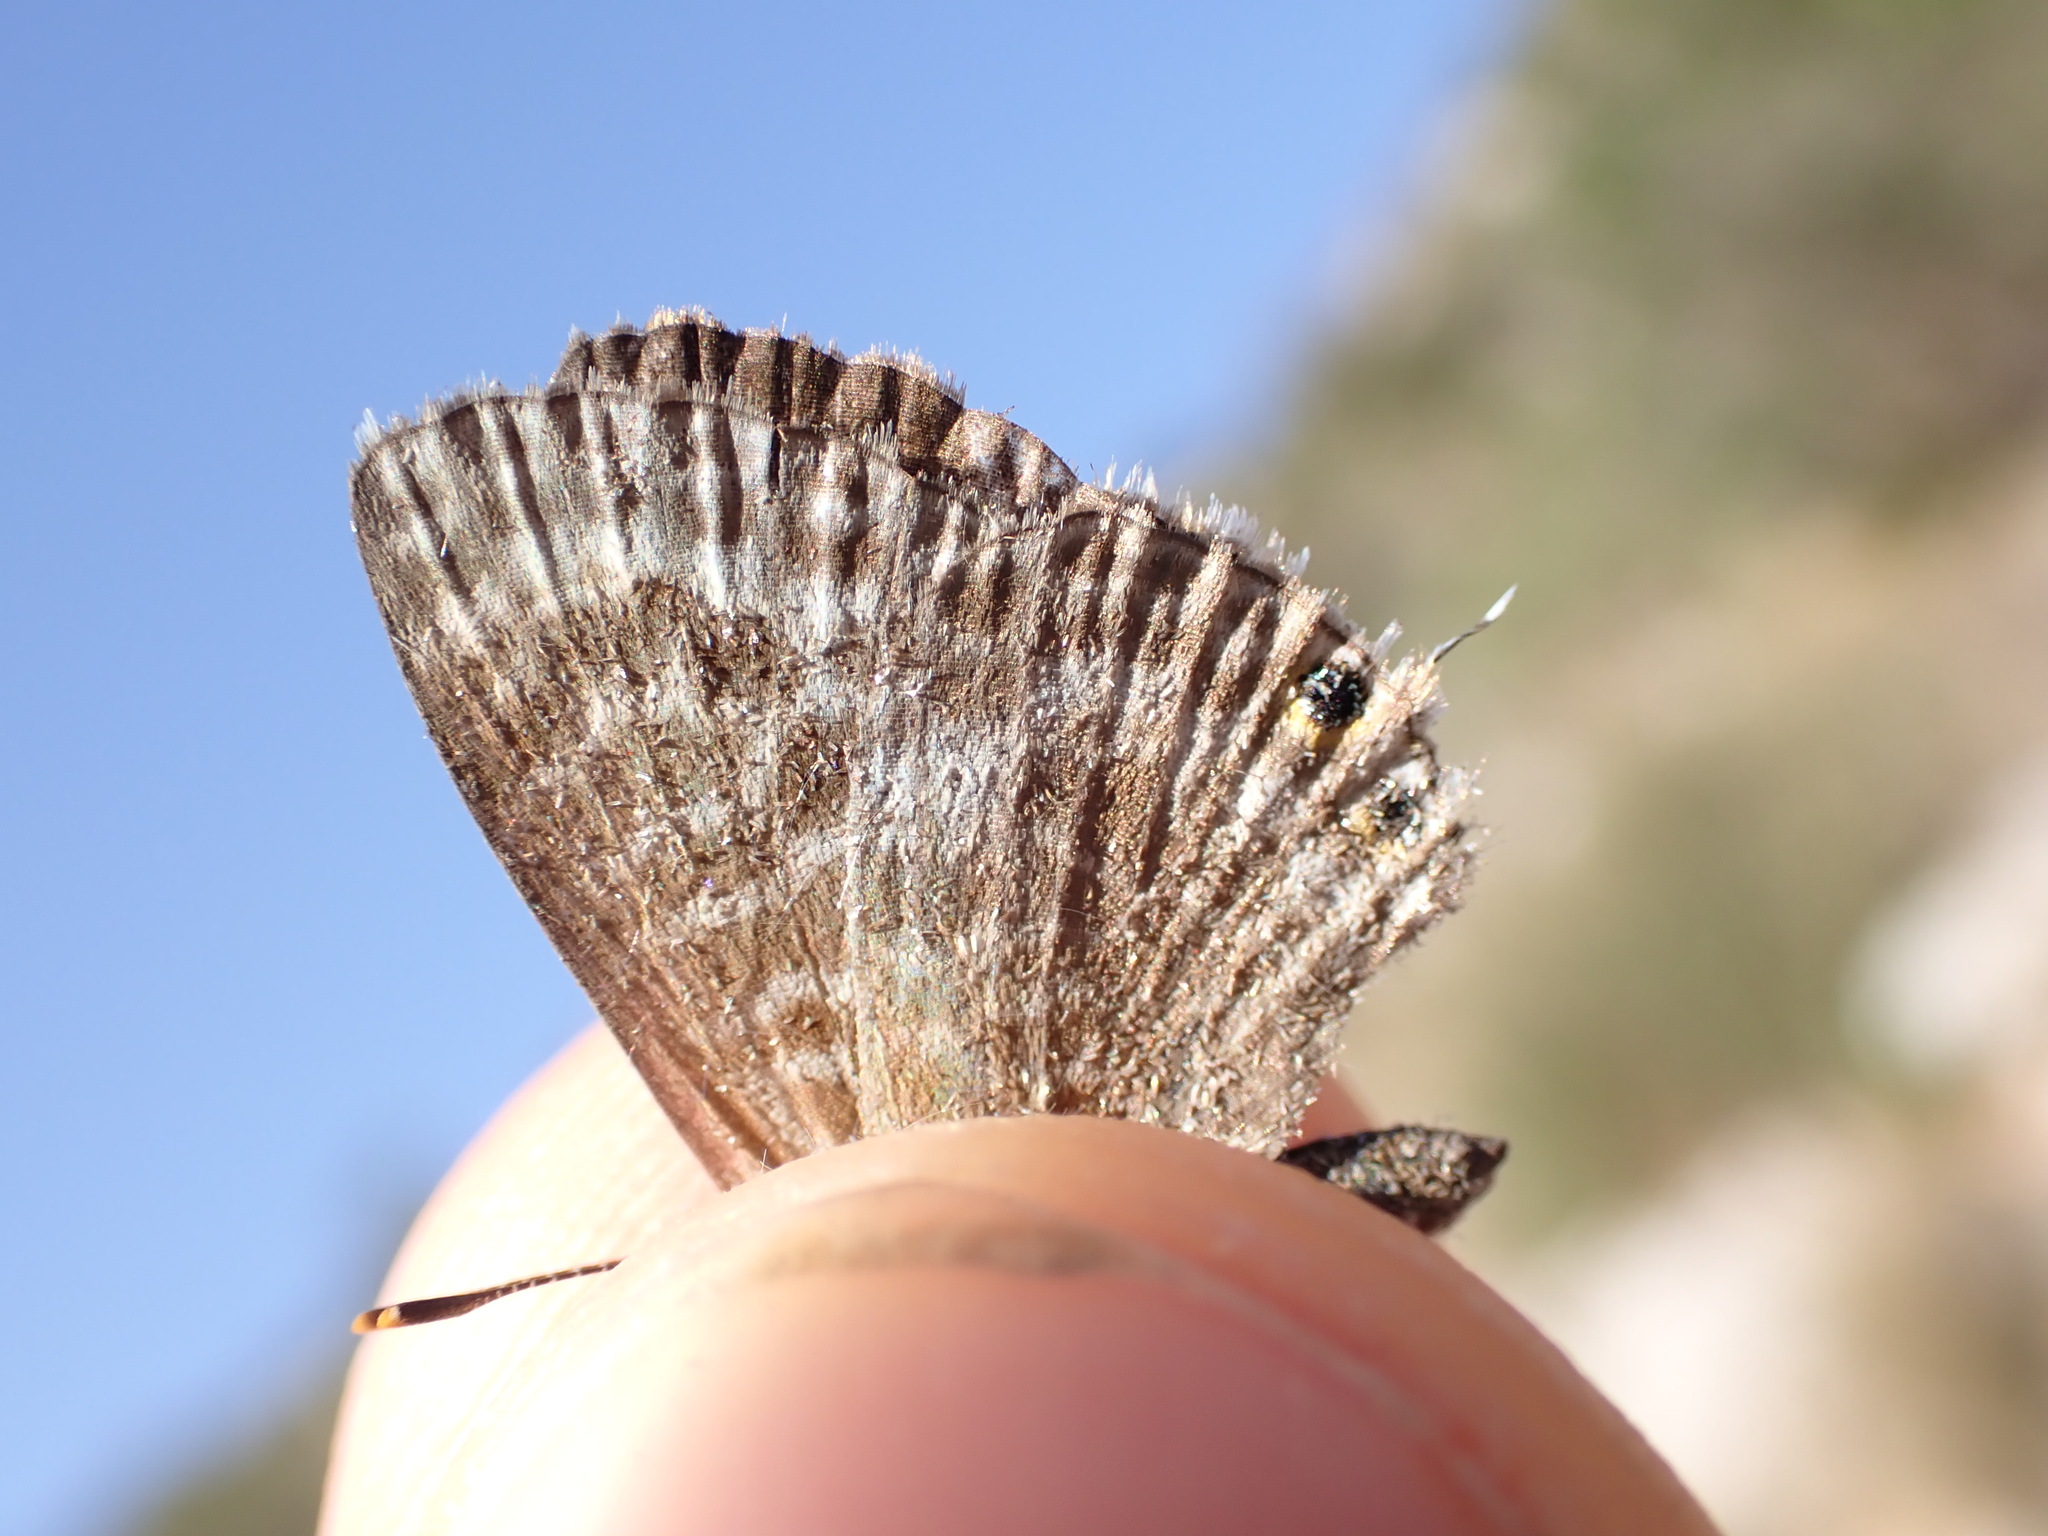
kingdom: Animalia
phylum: Arthropoda
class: Insecta
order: Lepidoptera
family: Lycaenidae
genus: Leptotes
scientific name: Leptotes pirithous
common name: Lang's short-tailed blue
